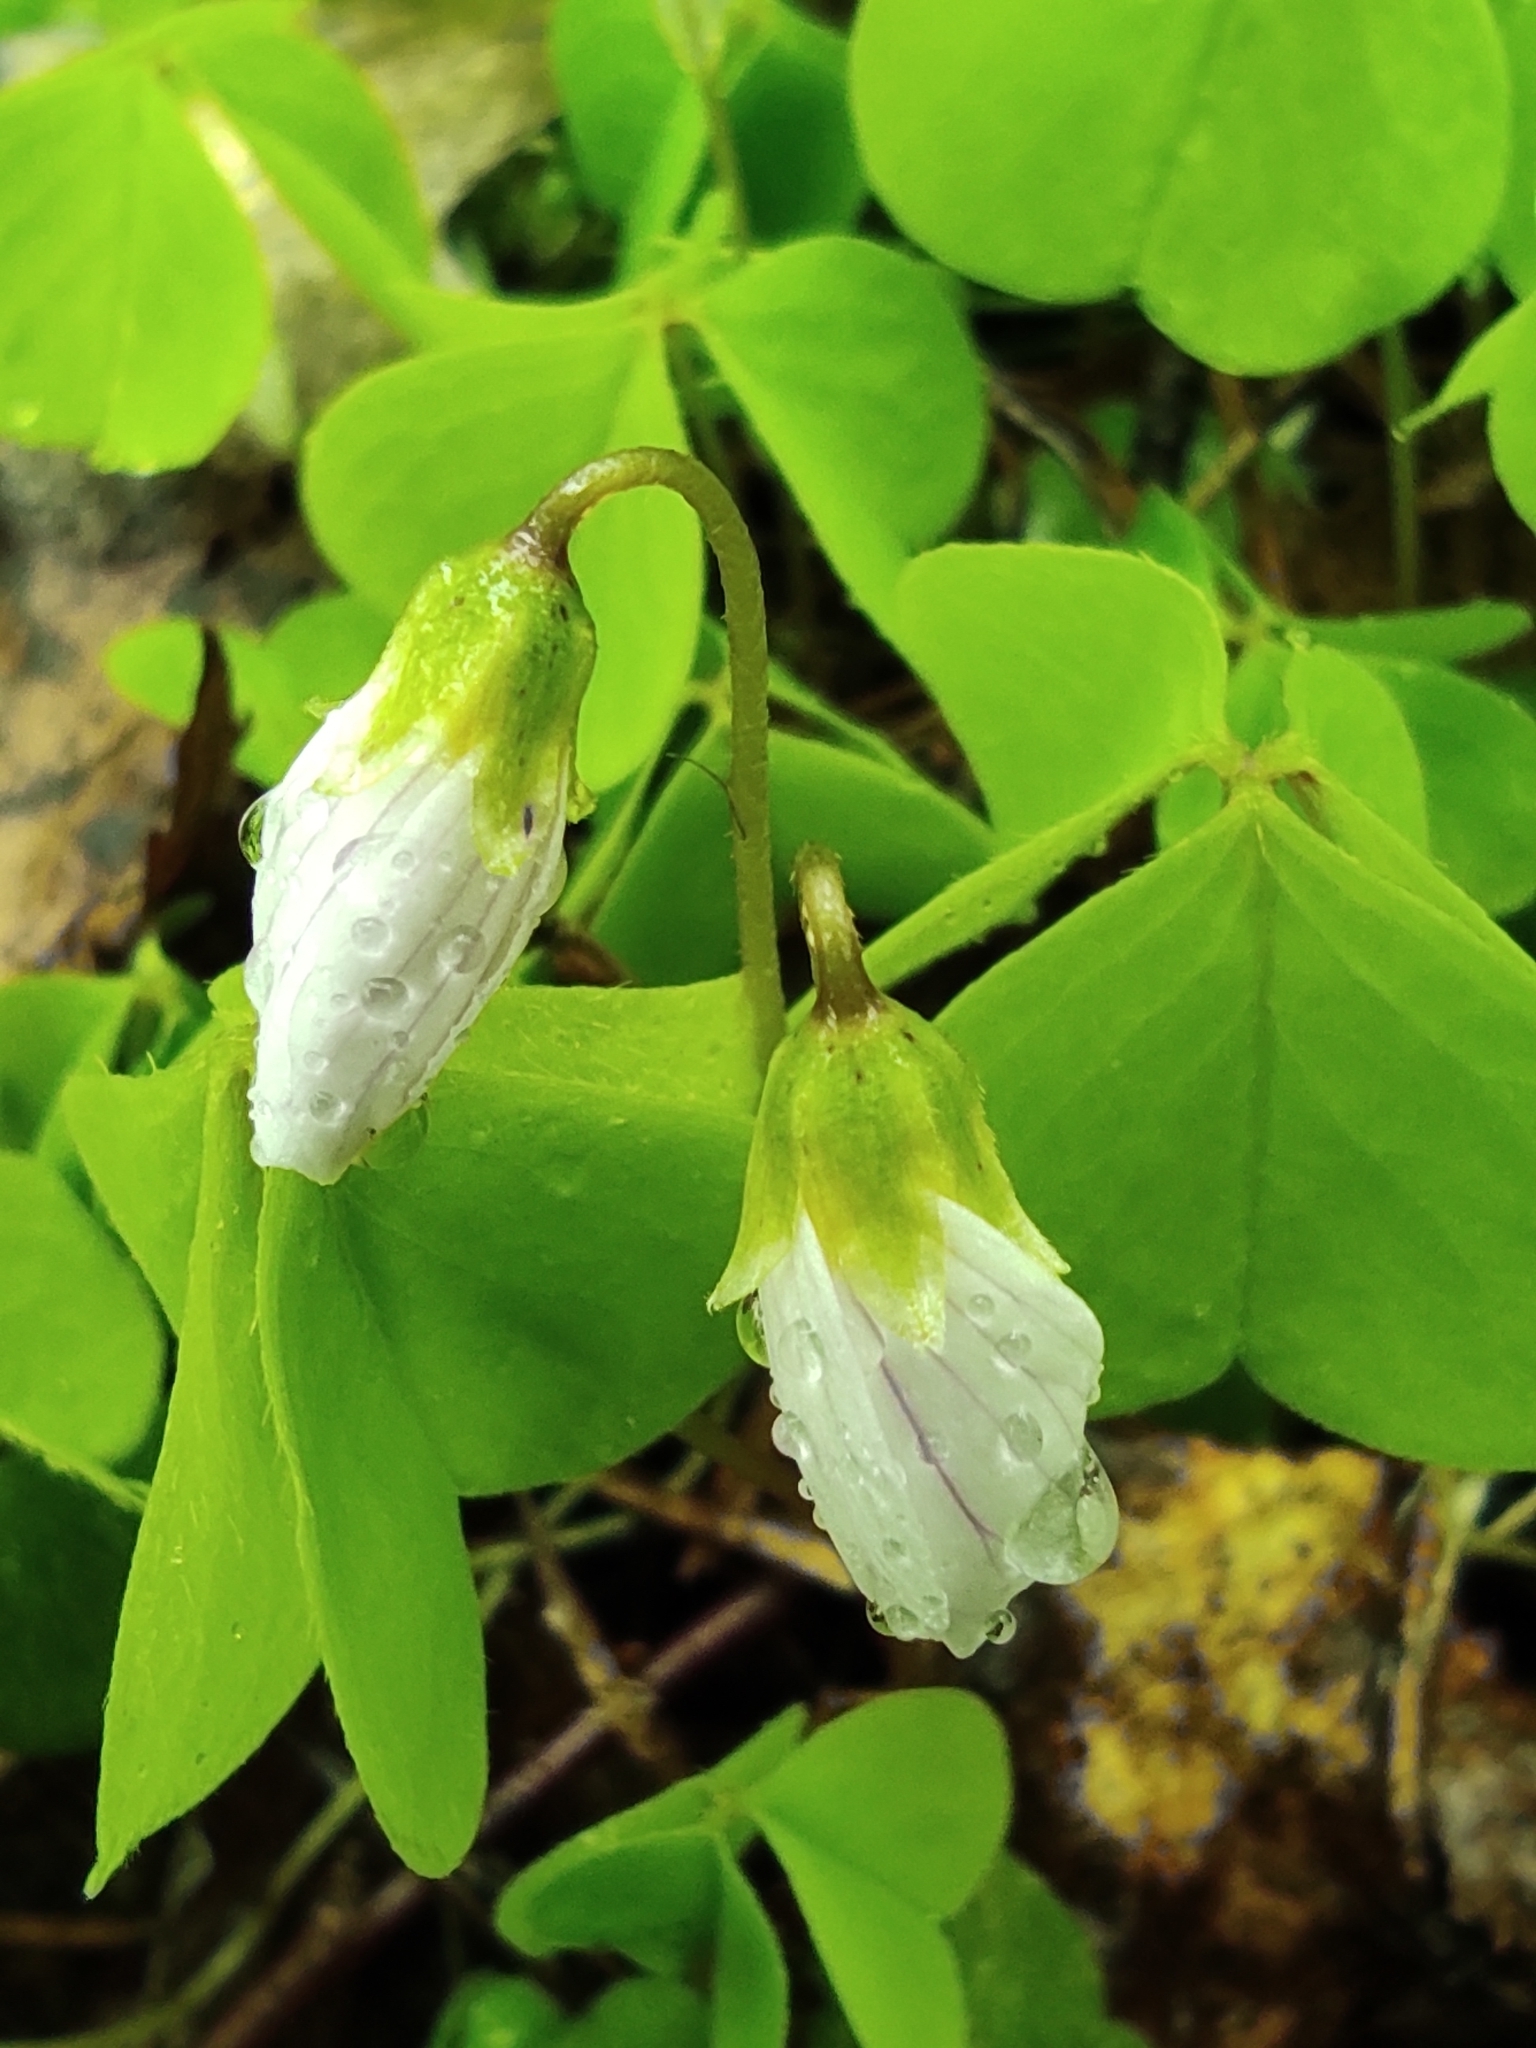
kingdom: Plantae
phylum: Tracheophyta
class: Magnoliopsida
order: Oxalidales
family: Oxalidaceae
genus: Oxalis
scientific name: Oxalis acetosella
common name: Wood-sorrel
